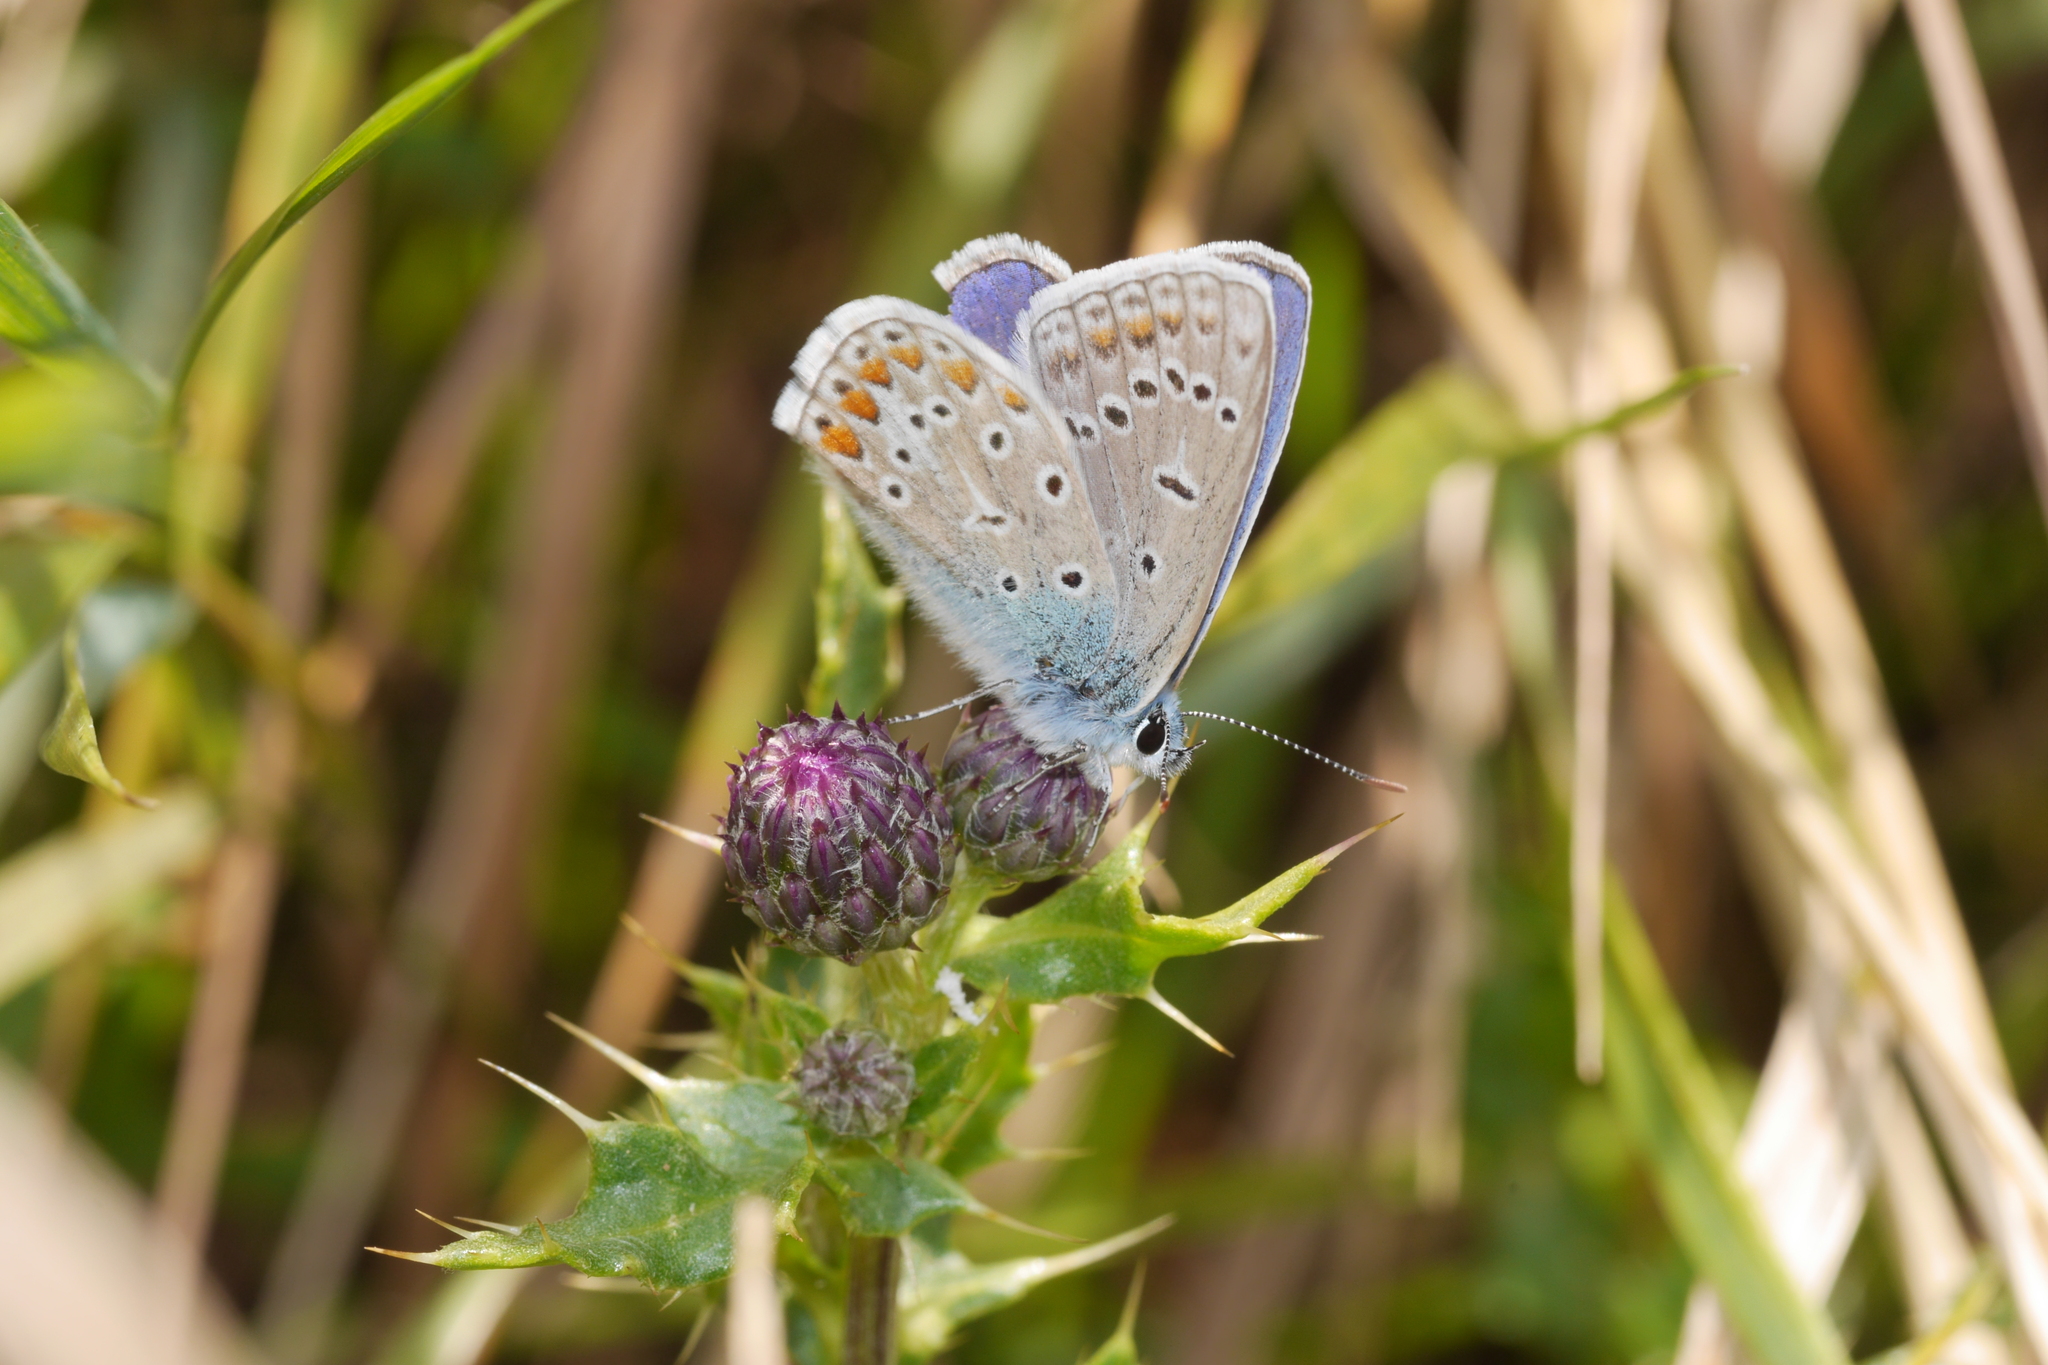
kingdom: Animalia
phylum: Arthropoda
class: Insecta
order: Lepidoptera
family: Lycaenidae
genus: Polyommatus
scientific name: Polyommatus icarus
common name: Common blue
